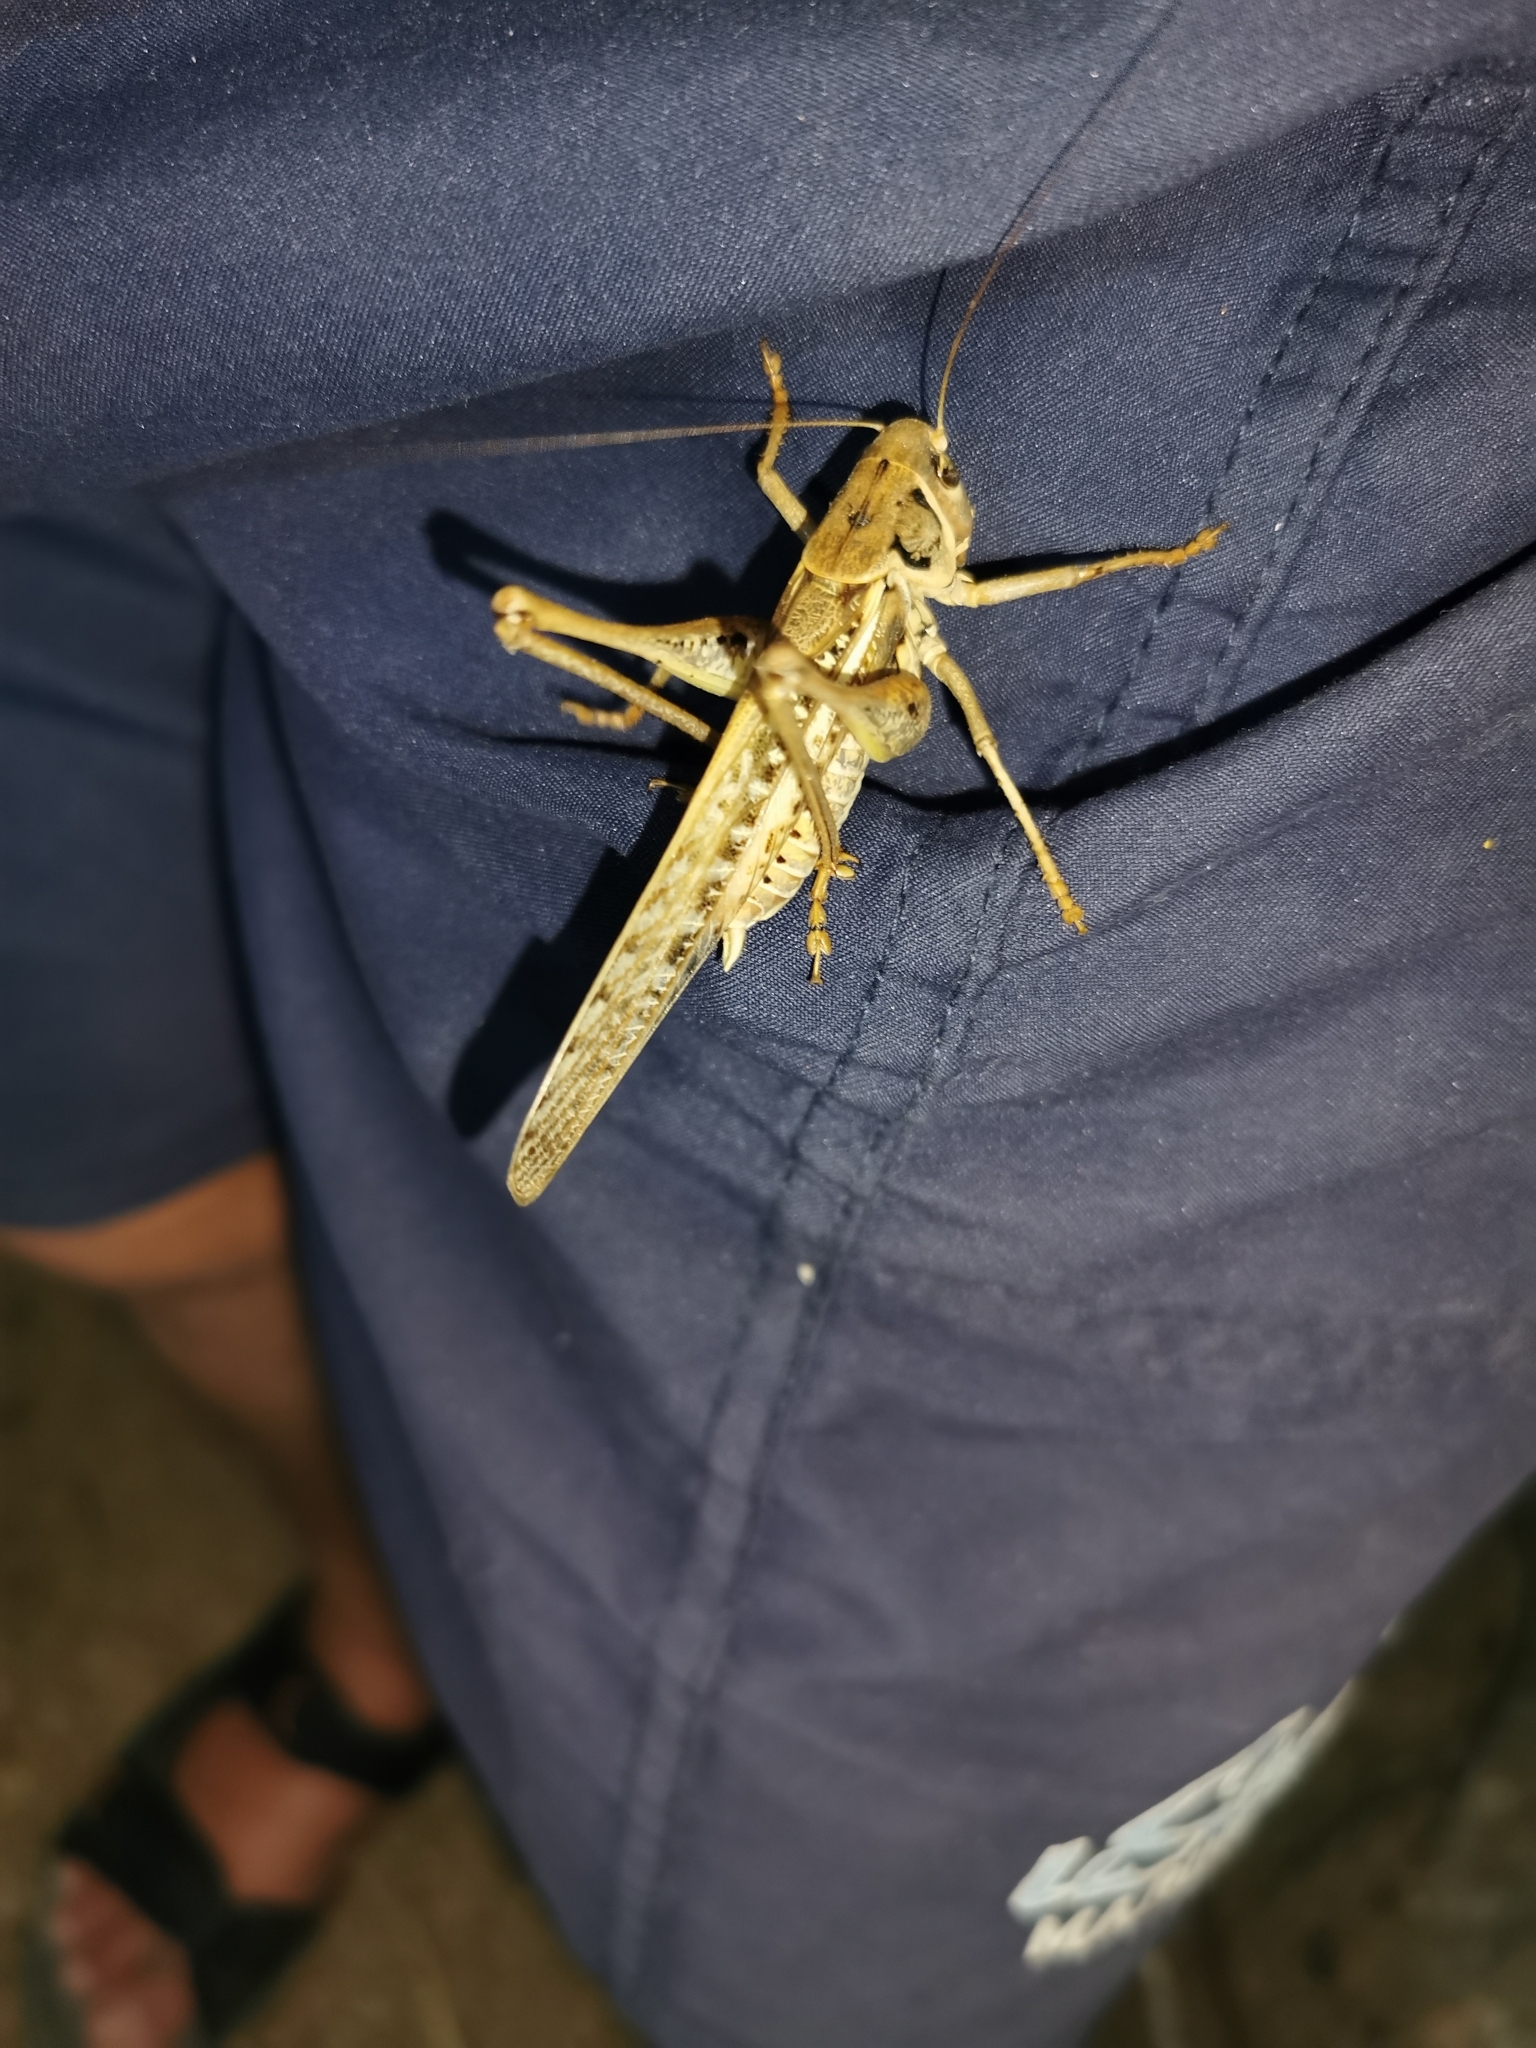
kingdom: Animalia
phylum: Arthropoda
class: Insecta
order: Orthoptera
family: Tettigoniidae
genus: Decticus
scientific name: Decticus albifrons
